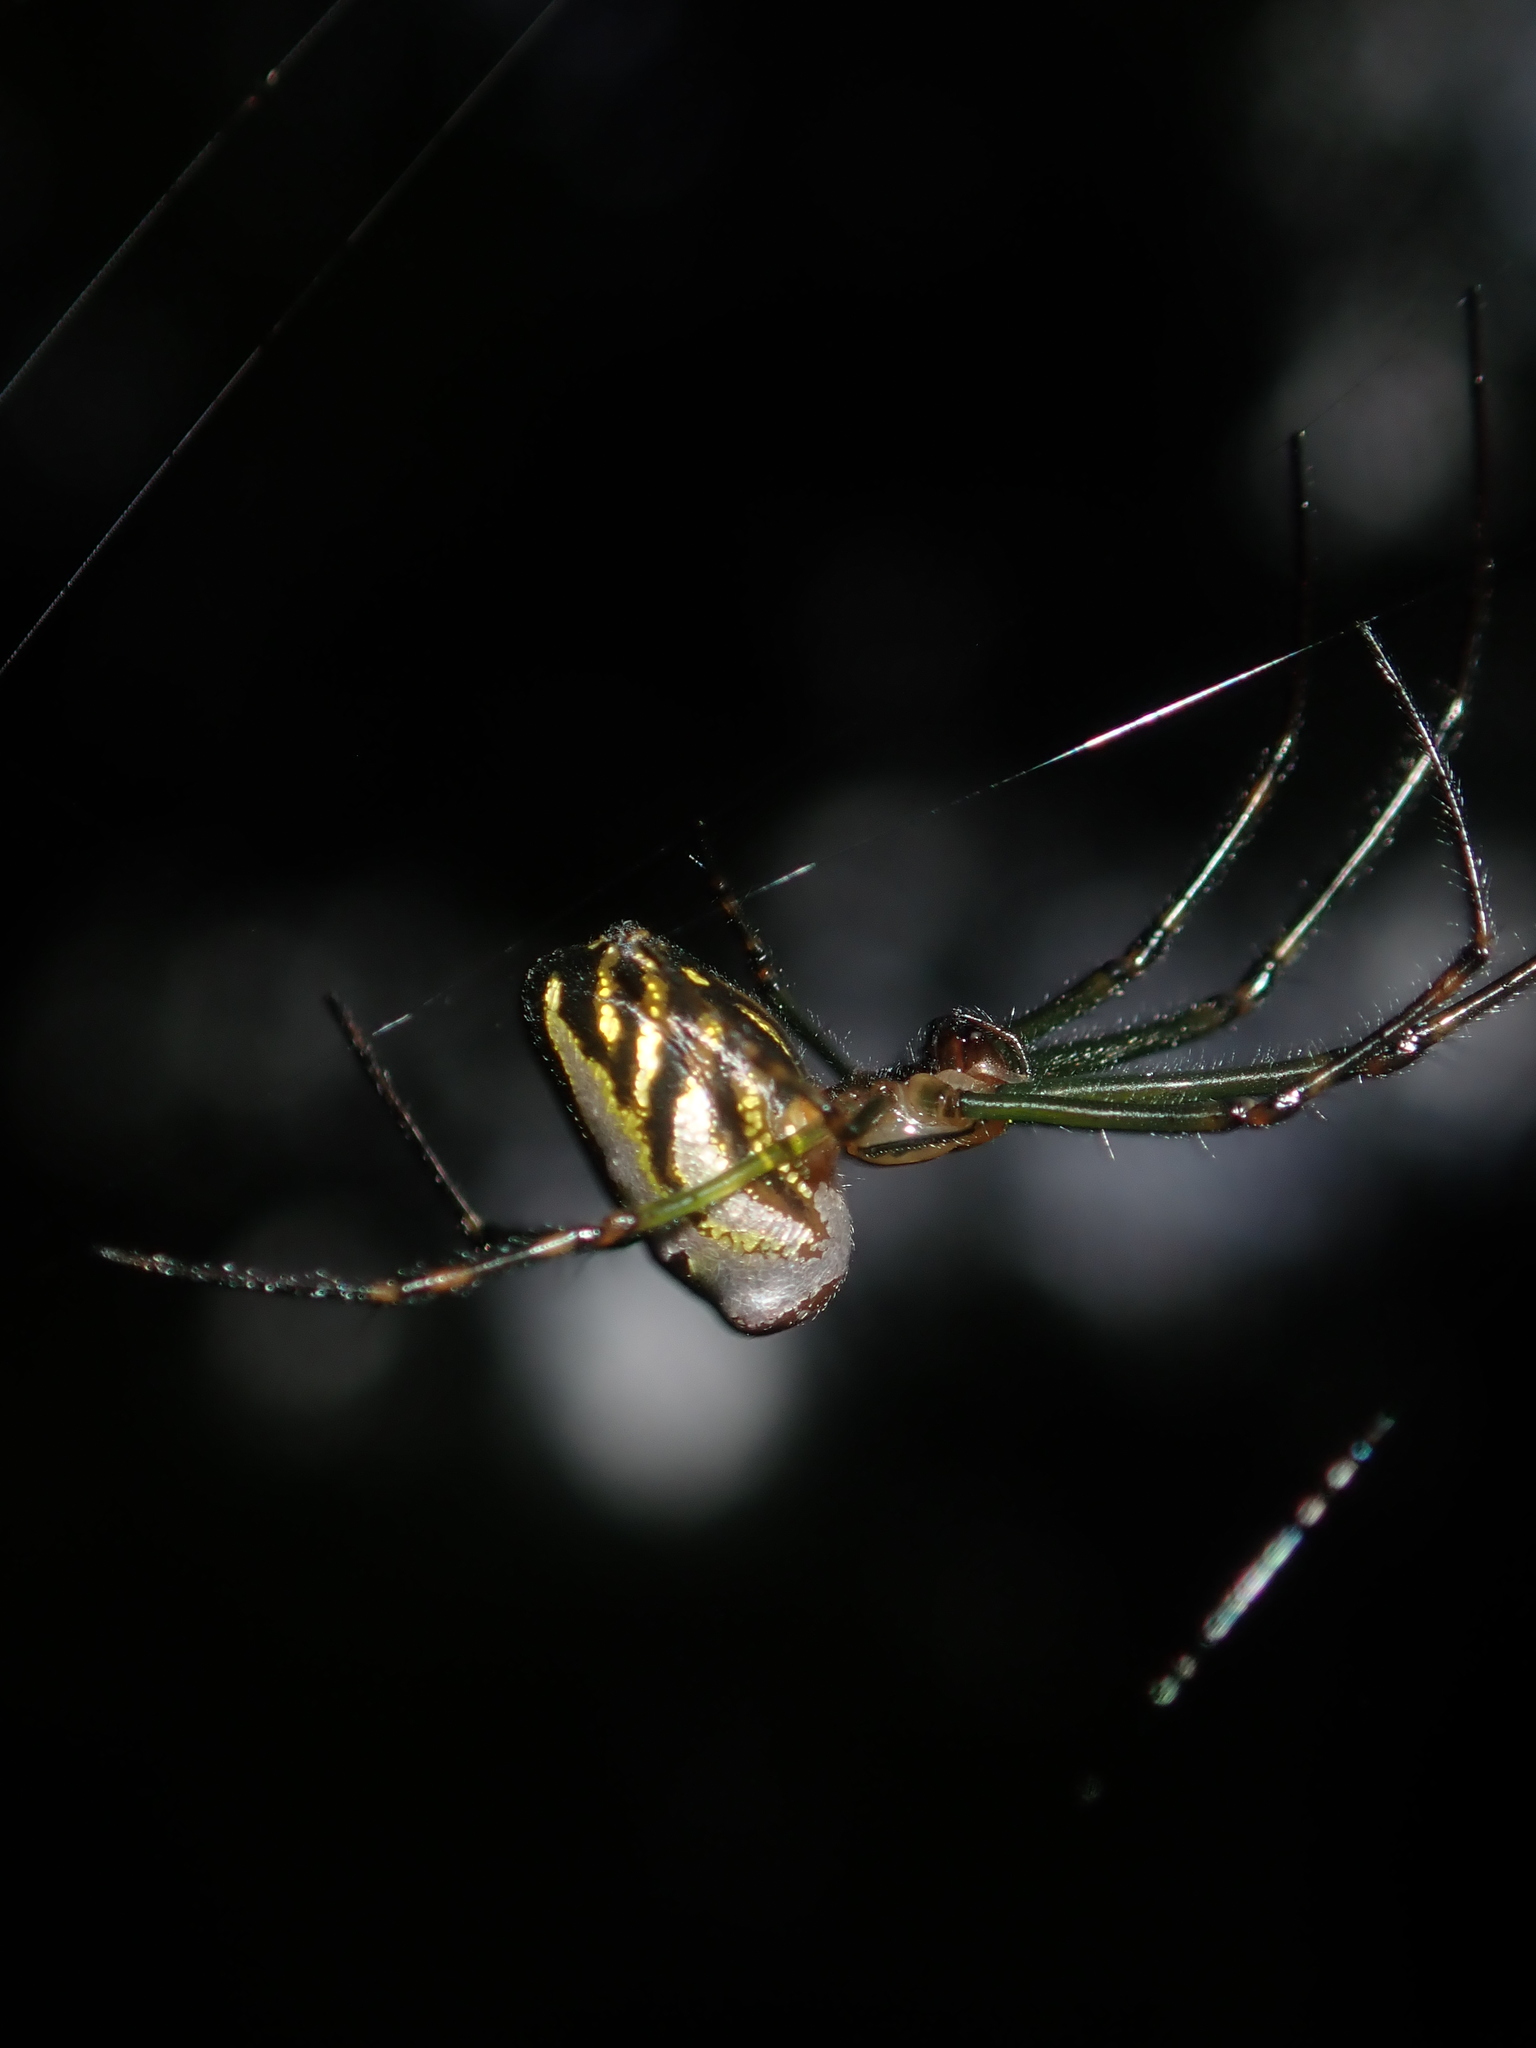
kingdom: Animalia
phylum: Arthropoda
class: Arachnida
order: Araneae
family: Tetragnathidae
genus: Leucauge
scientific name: Leucauge dromedaria
